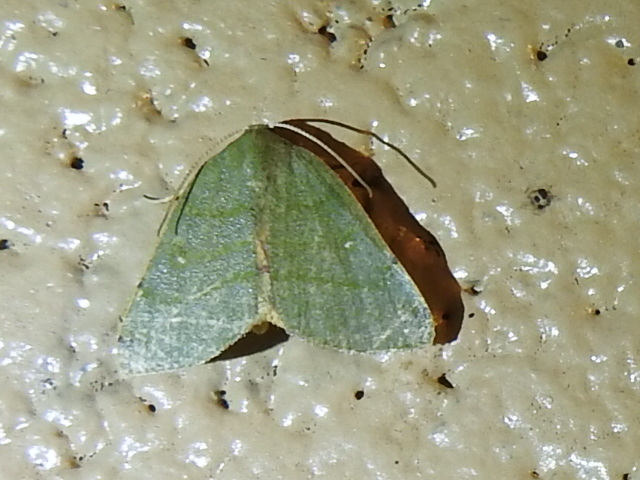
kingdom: Animalia
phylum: Arthropoda
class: Insecta
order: Lepidoptera
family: Geometridae
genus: Chloraspilates
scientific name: Chloraspilates bicoloraria
